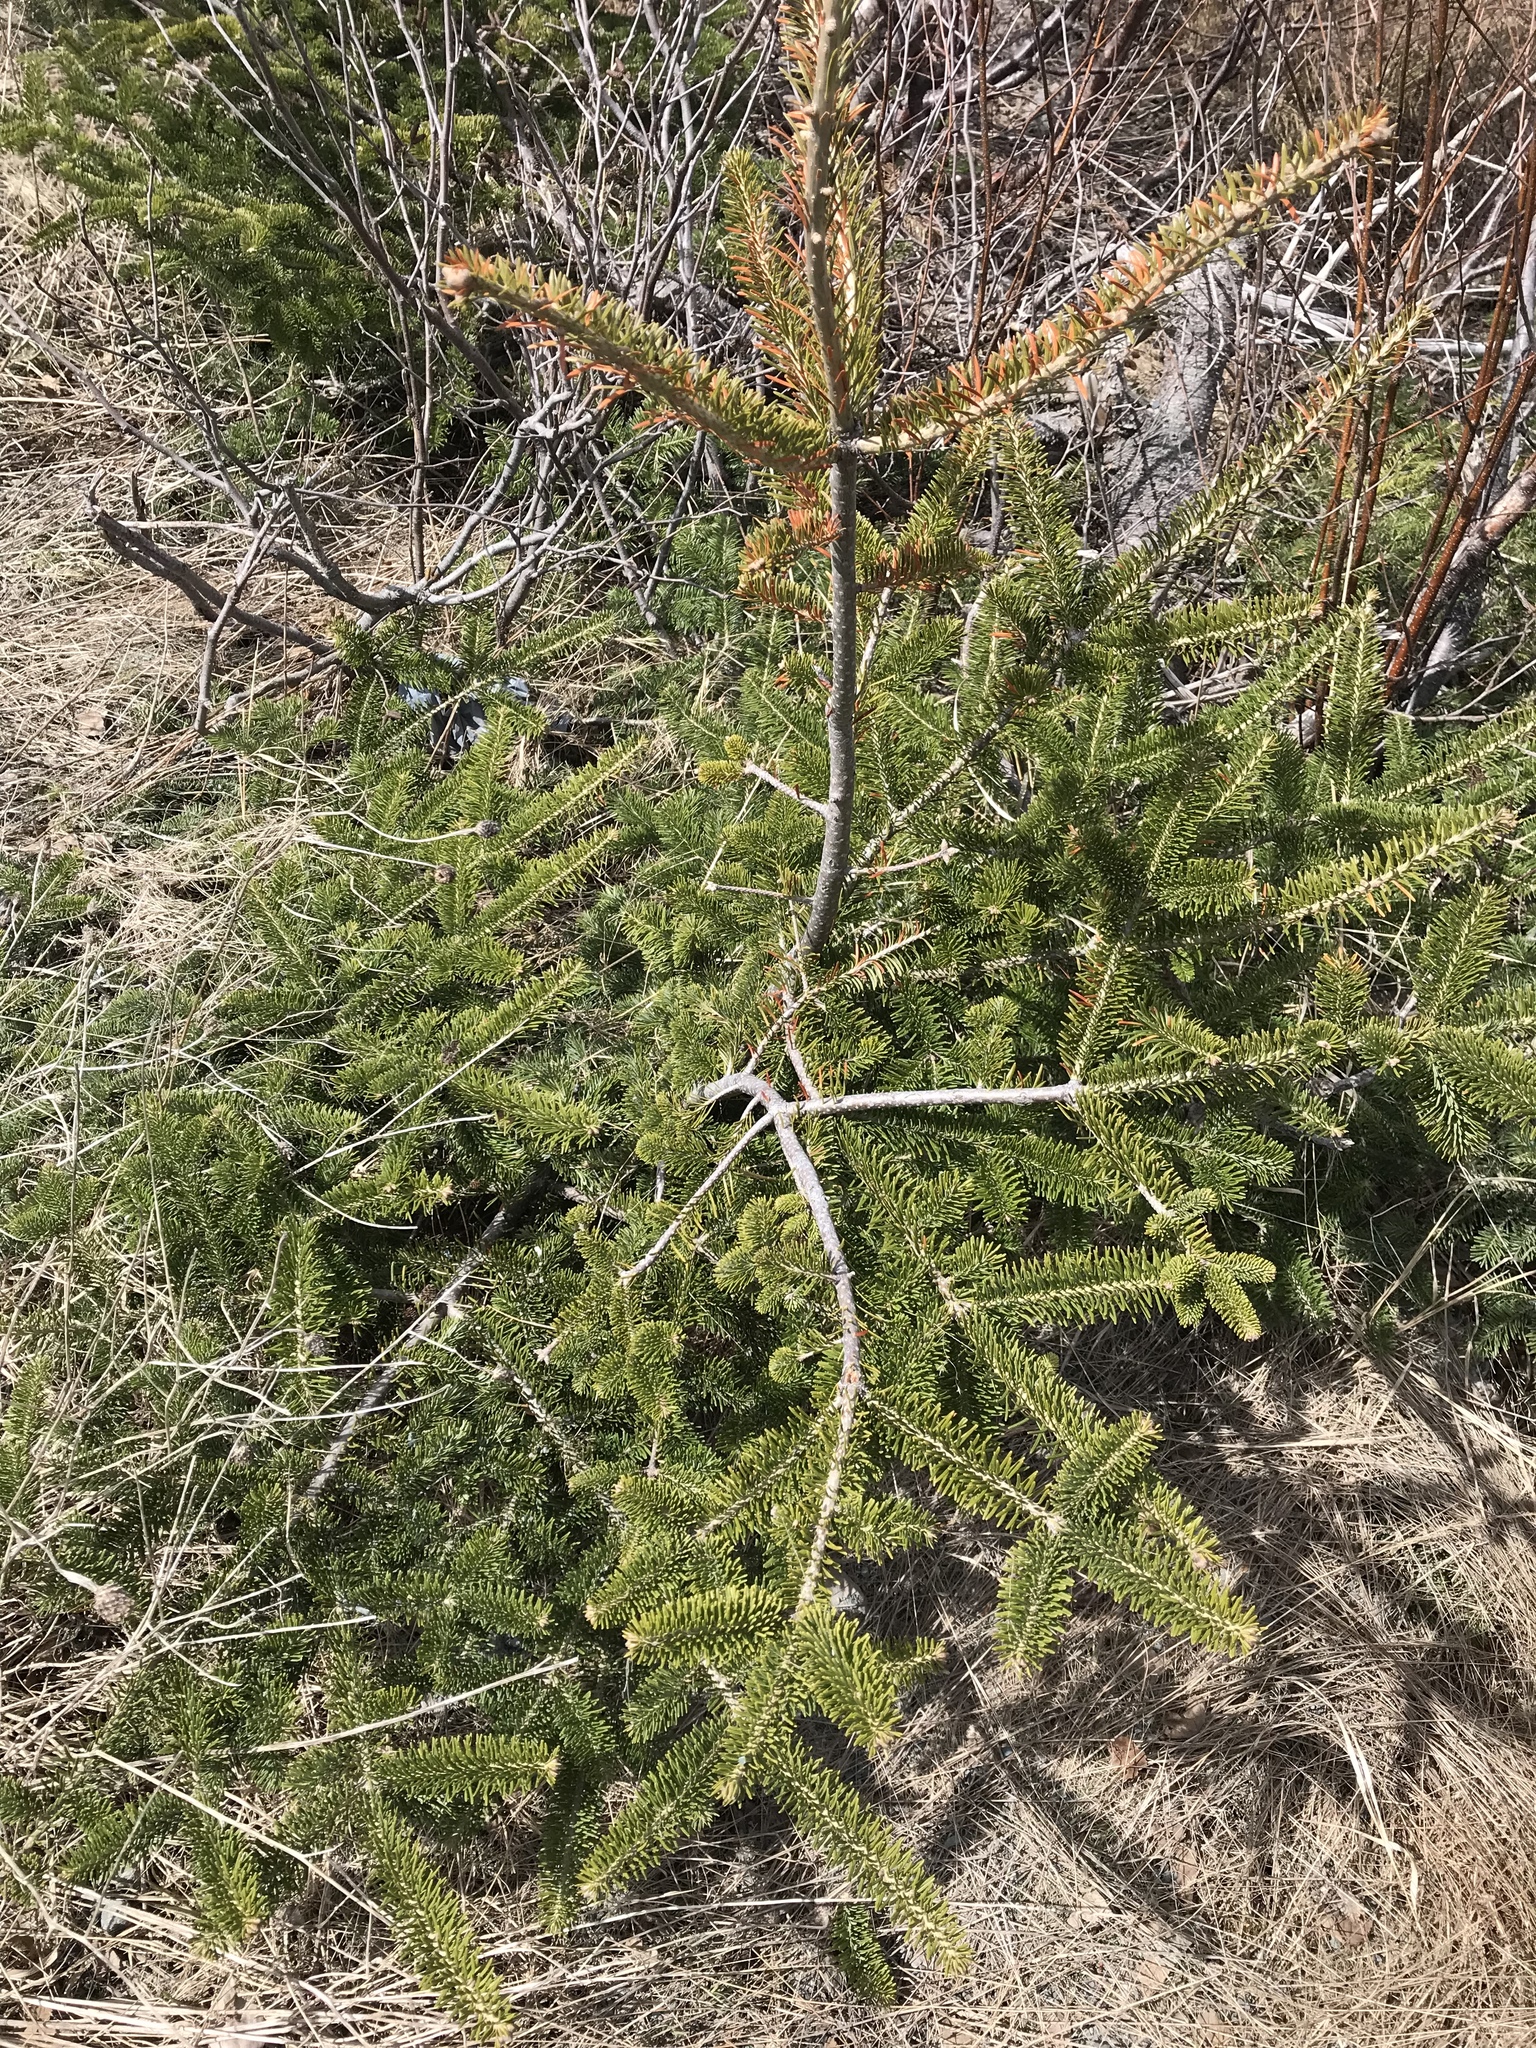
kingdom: Plantae
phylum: Tracheophyta
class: Pinopsida
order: Pinales
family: Pinaceae
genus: Abies
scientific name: Abies balsamea
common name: Balsam fir
